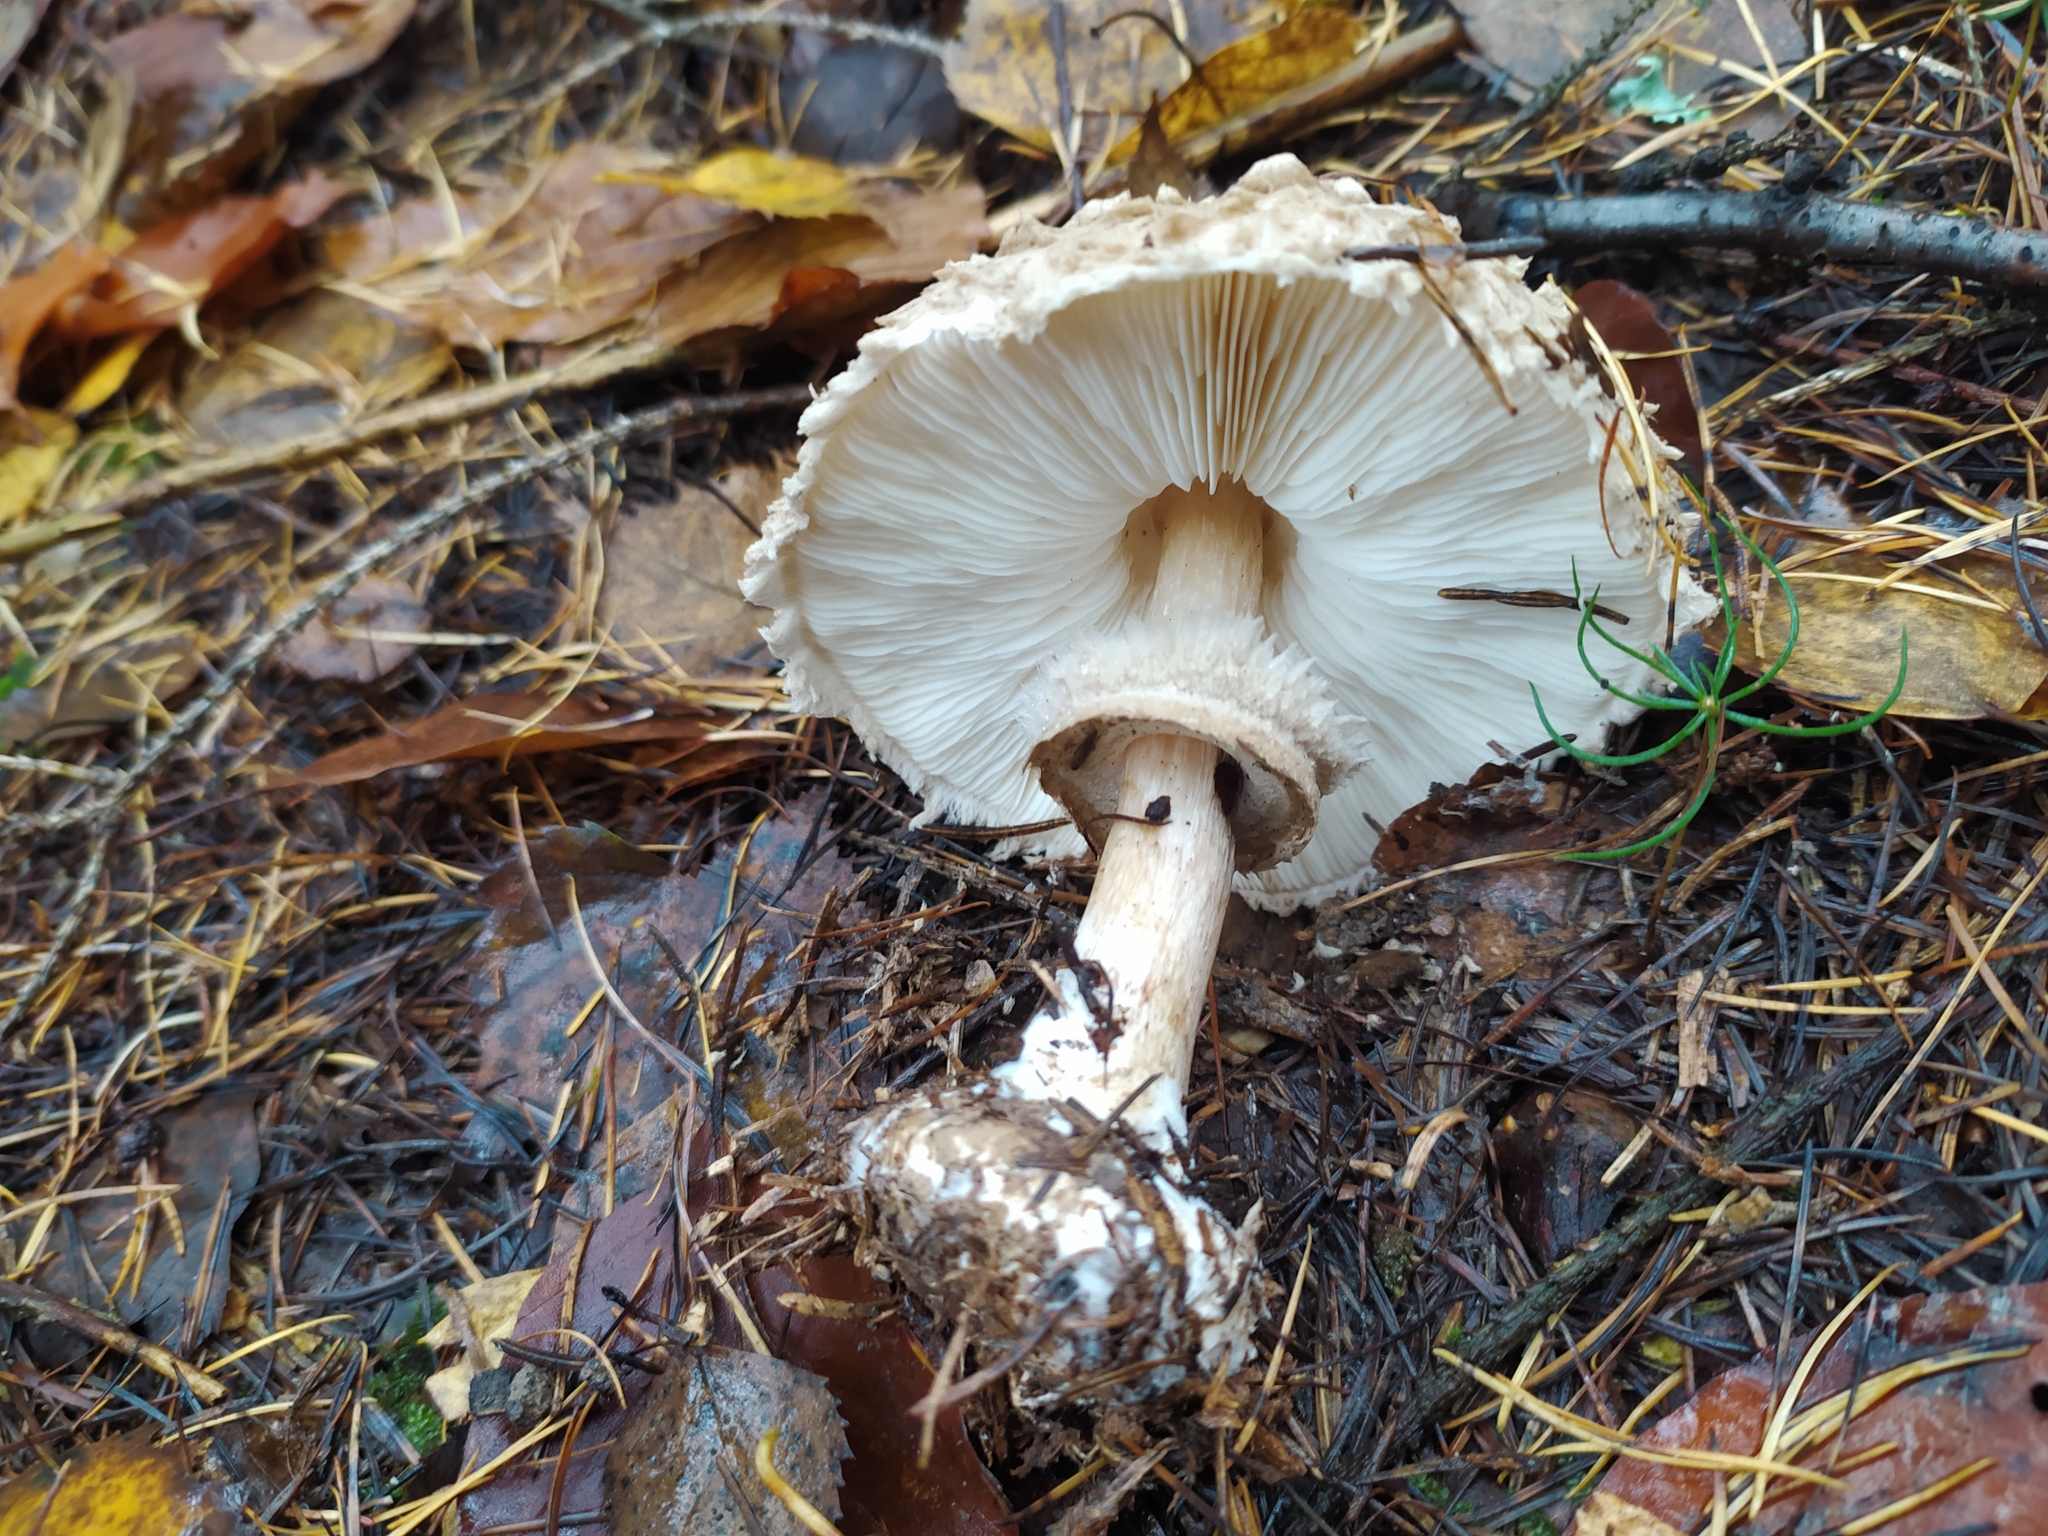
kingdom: Fungi
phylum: Basidiomycota
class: Agaricomycetes
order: Agaricales
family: Agaricaceae
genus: Chlorophyllum
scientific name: Chlorophyllum olivieri
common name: Conifer parasol
